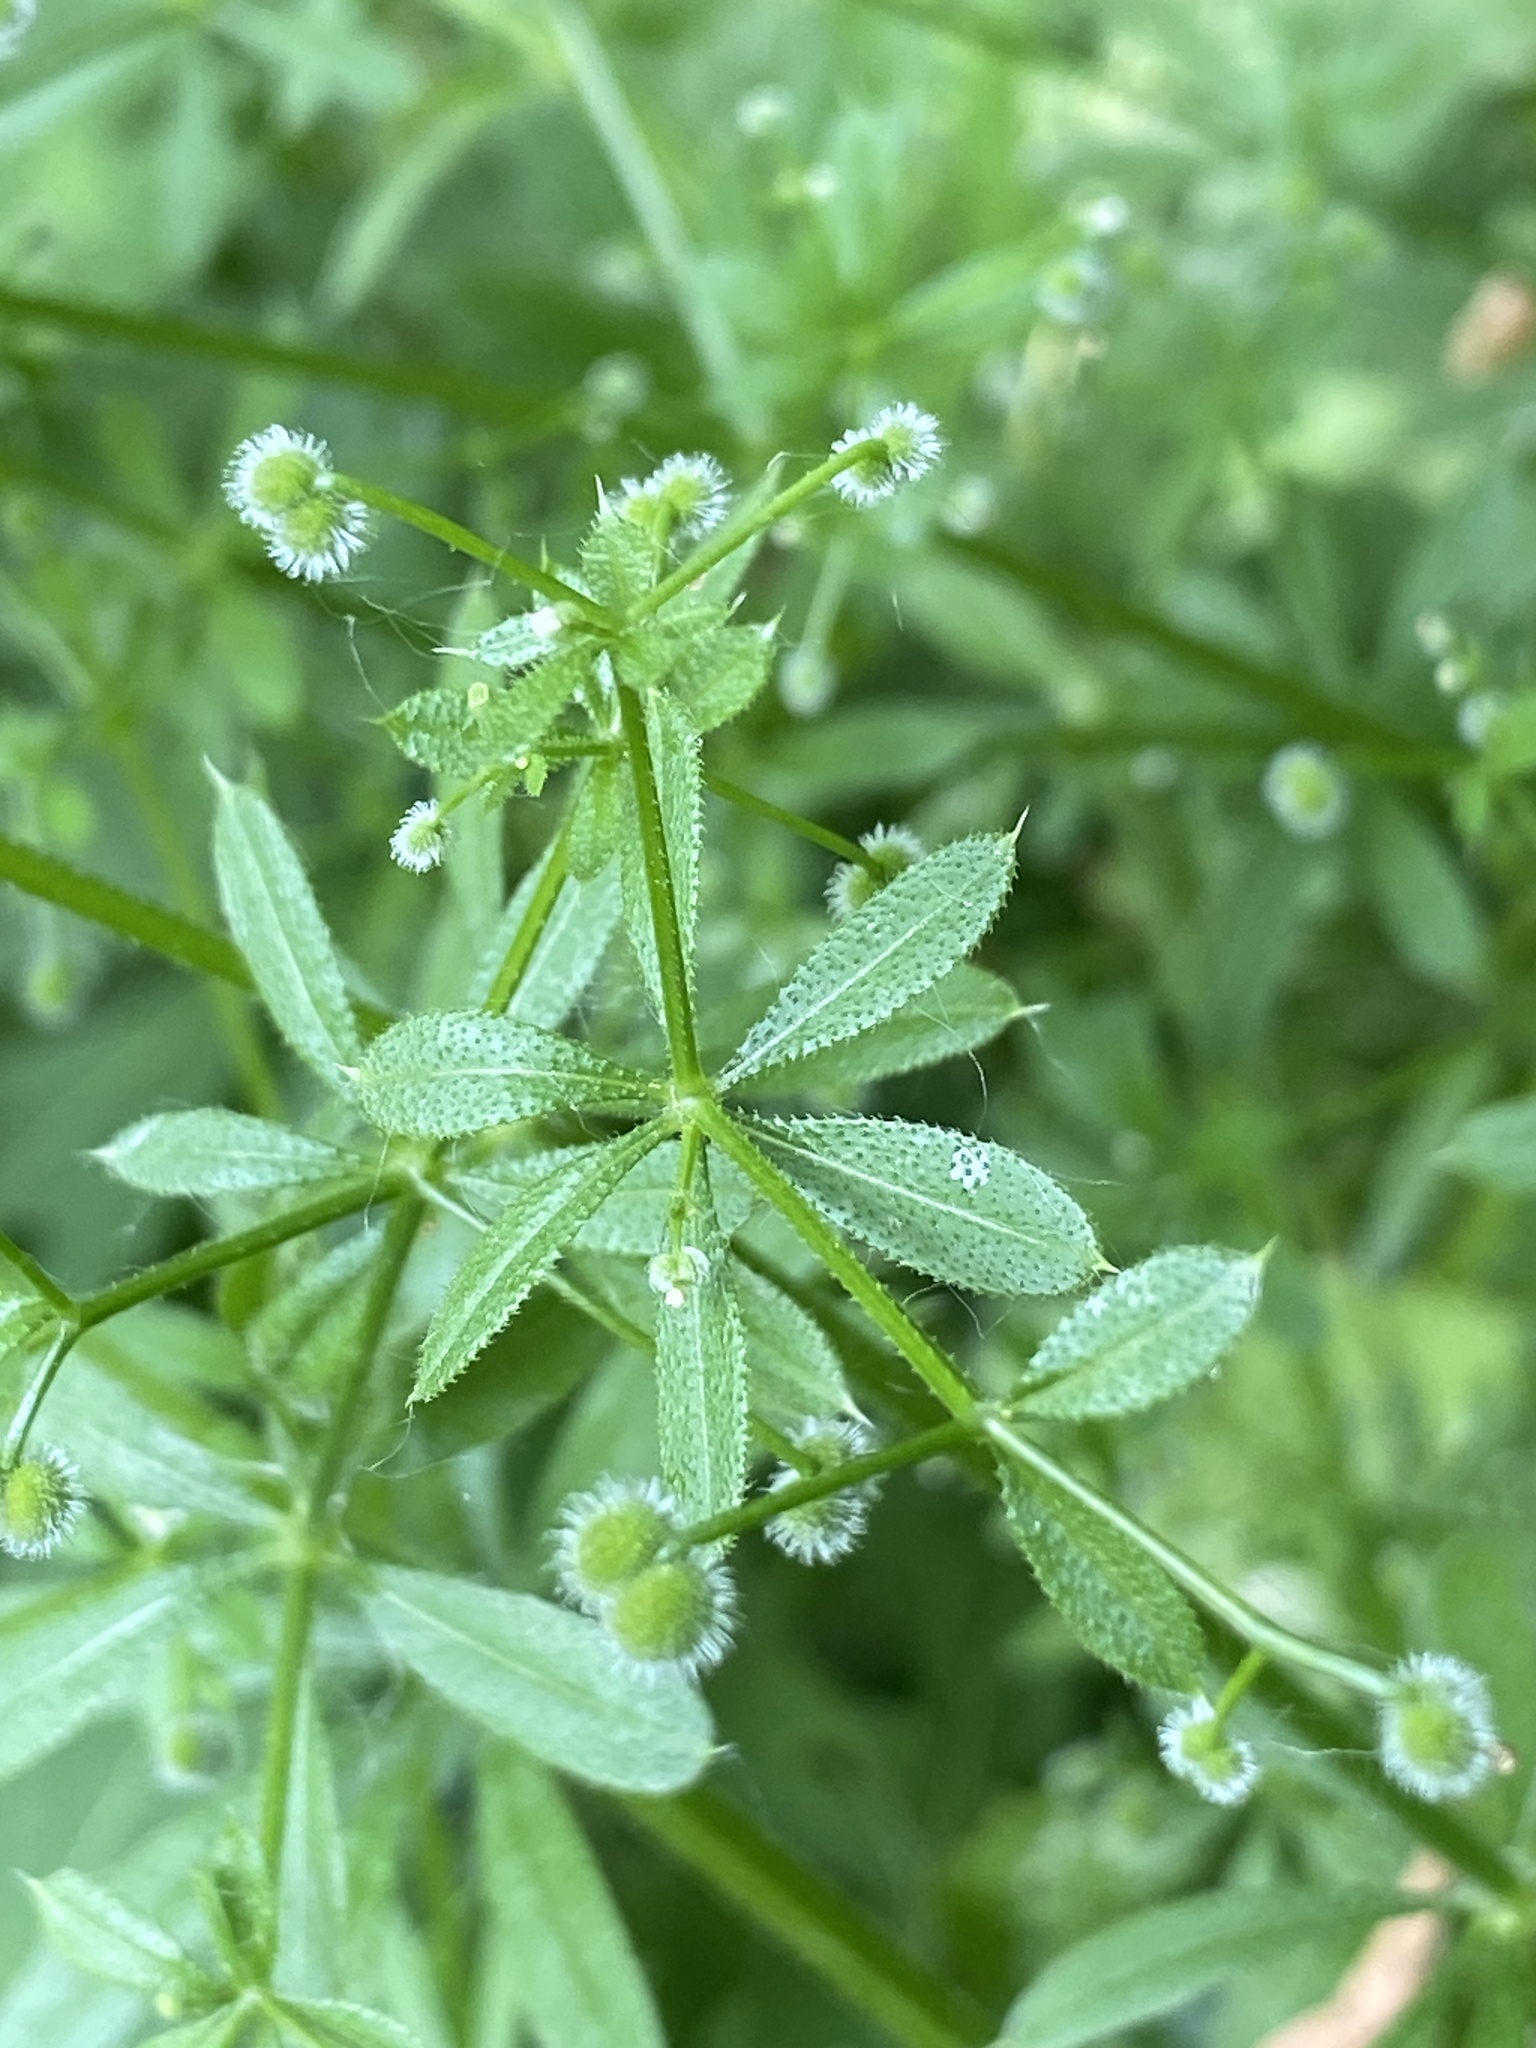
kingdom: Plantae
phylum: Tracheophyta
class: Magnoliopsida
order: Gentianales
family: Rubiaceae
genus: Galium
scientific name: Galium aparine
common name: Cleavers
